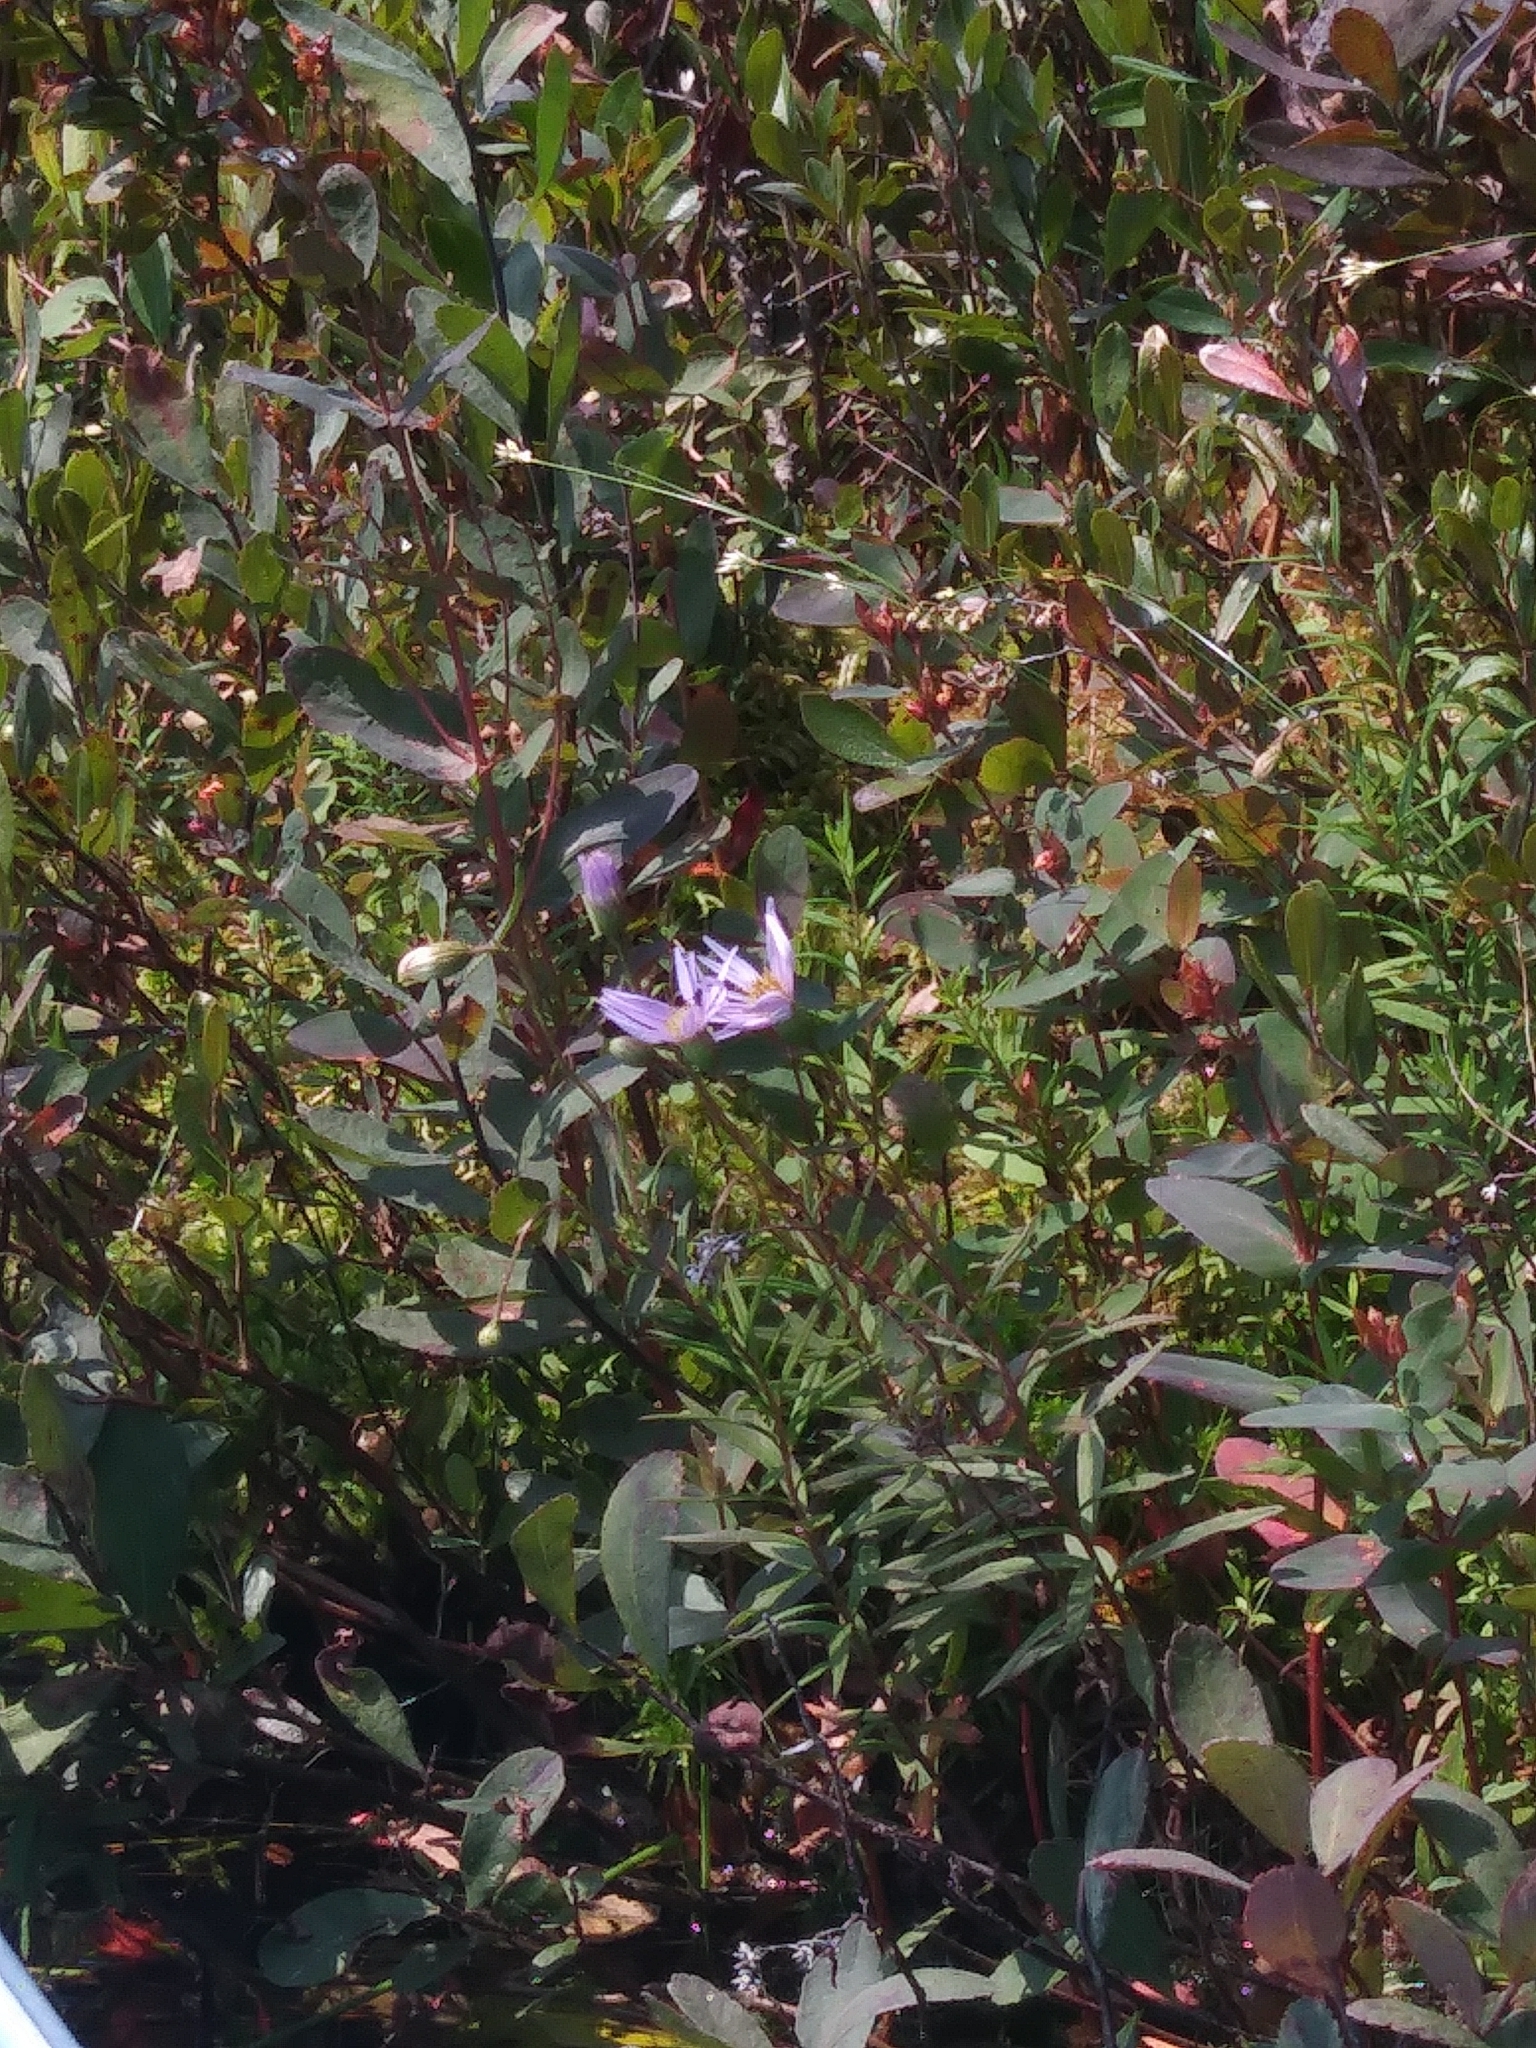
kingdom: Plantae
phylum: Tracheophyta
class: Magnoliopsida
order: Asterales
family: Asteraceae
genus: Oclemena
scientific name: Oclemena nemoralis
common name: Bog aster
